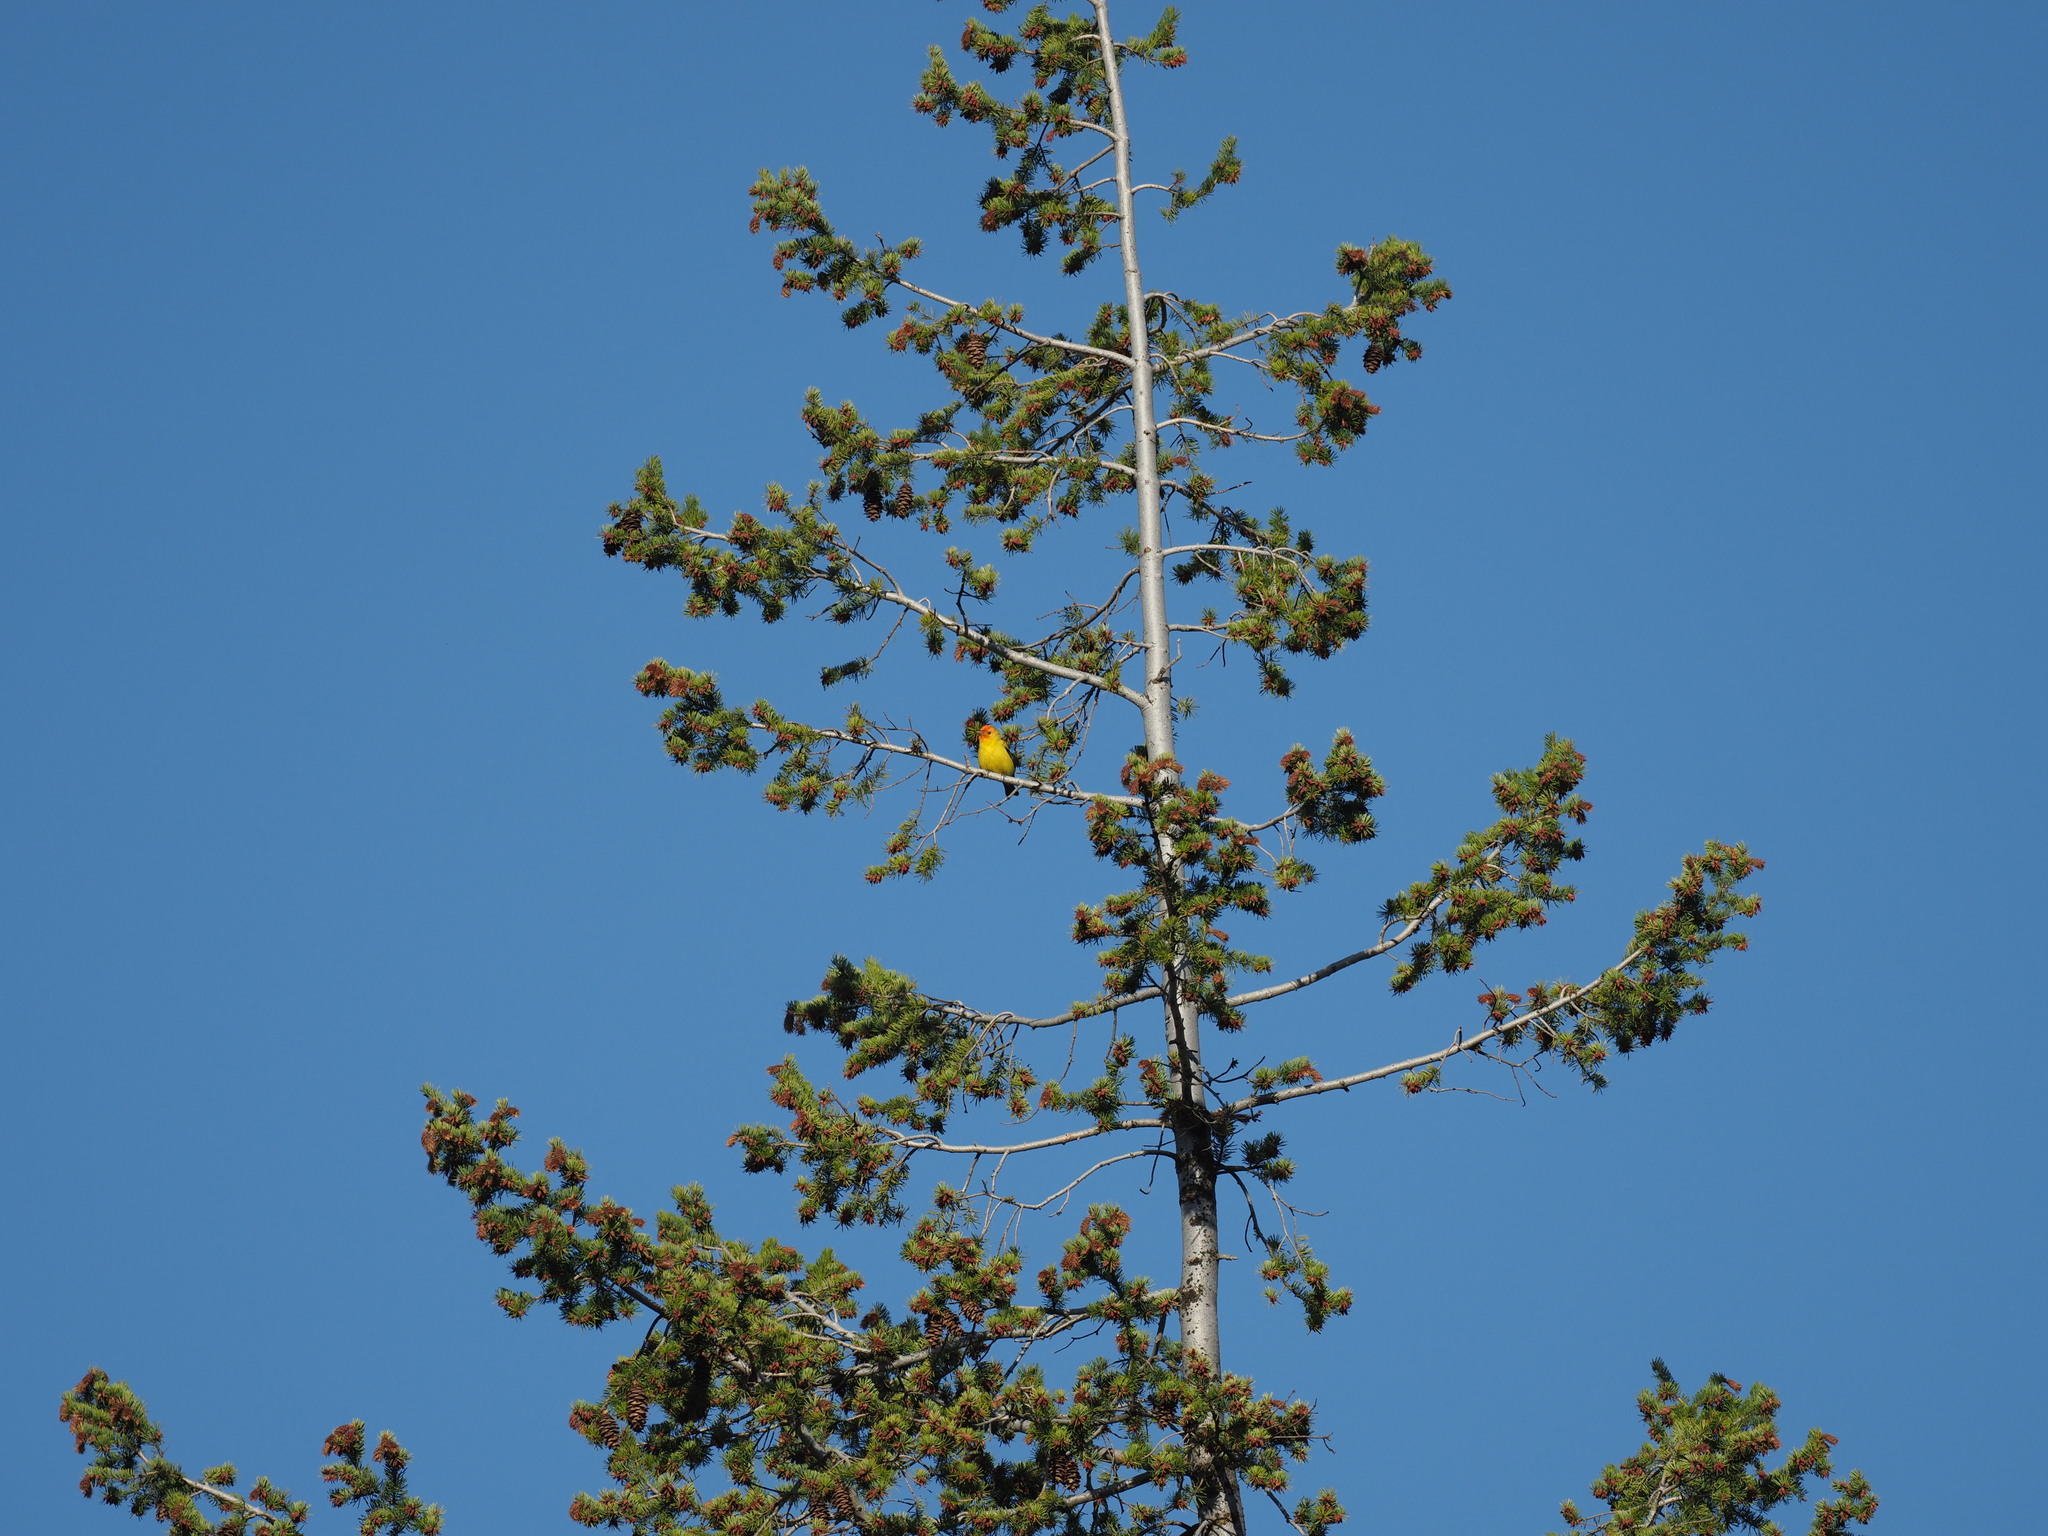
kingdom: Animalia
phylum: Chordata
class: Aves
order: Passeriformes
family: Cardinalidae
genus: Piranga
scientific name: Piranga ludoviciana
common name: Western tanager
